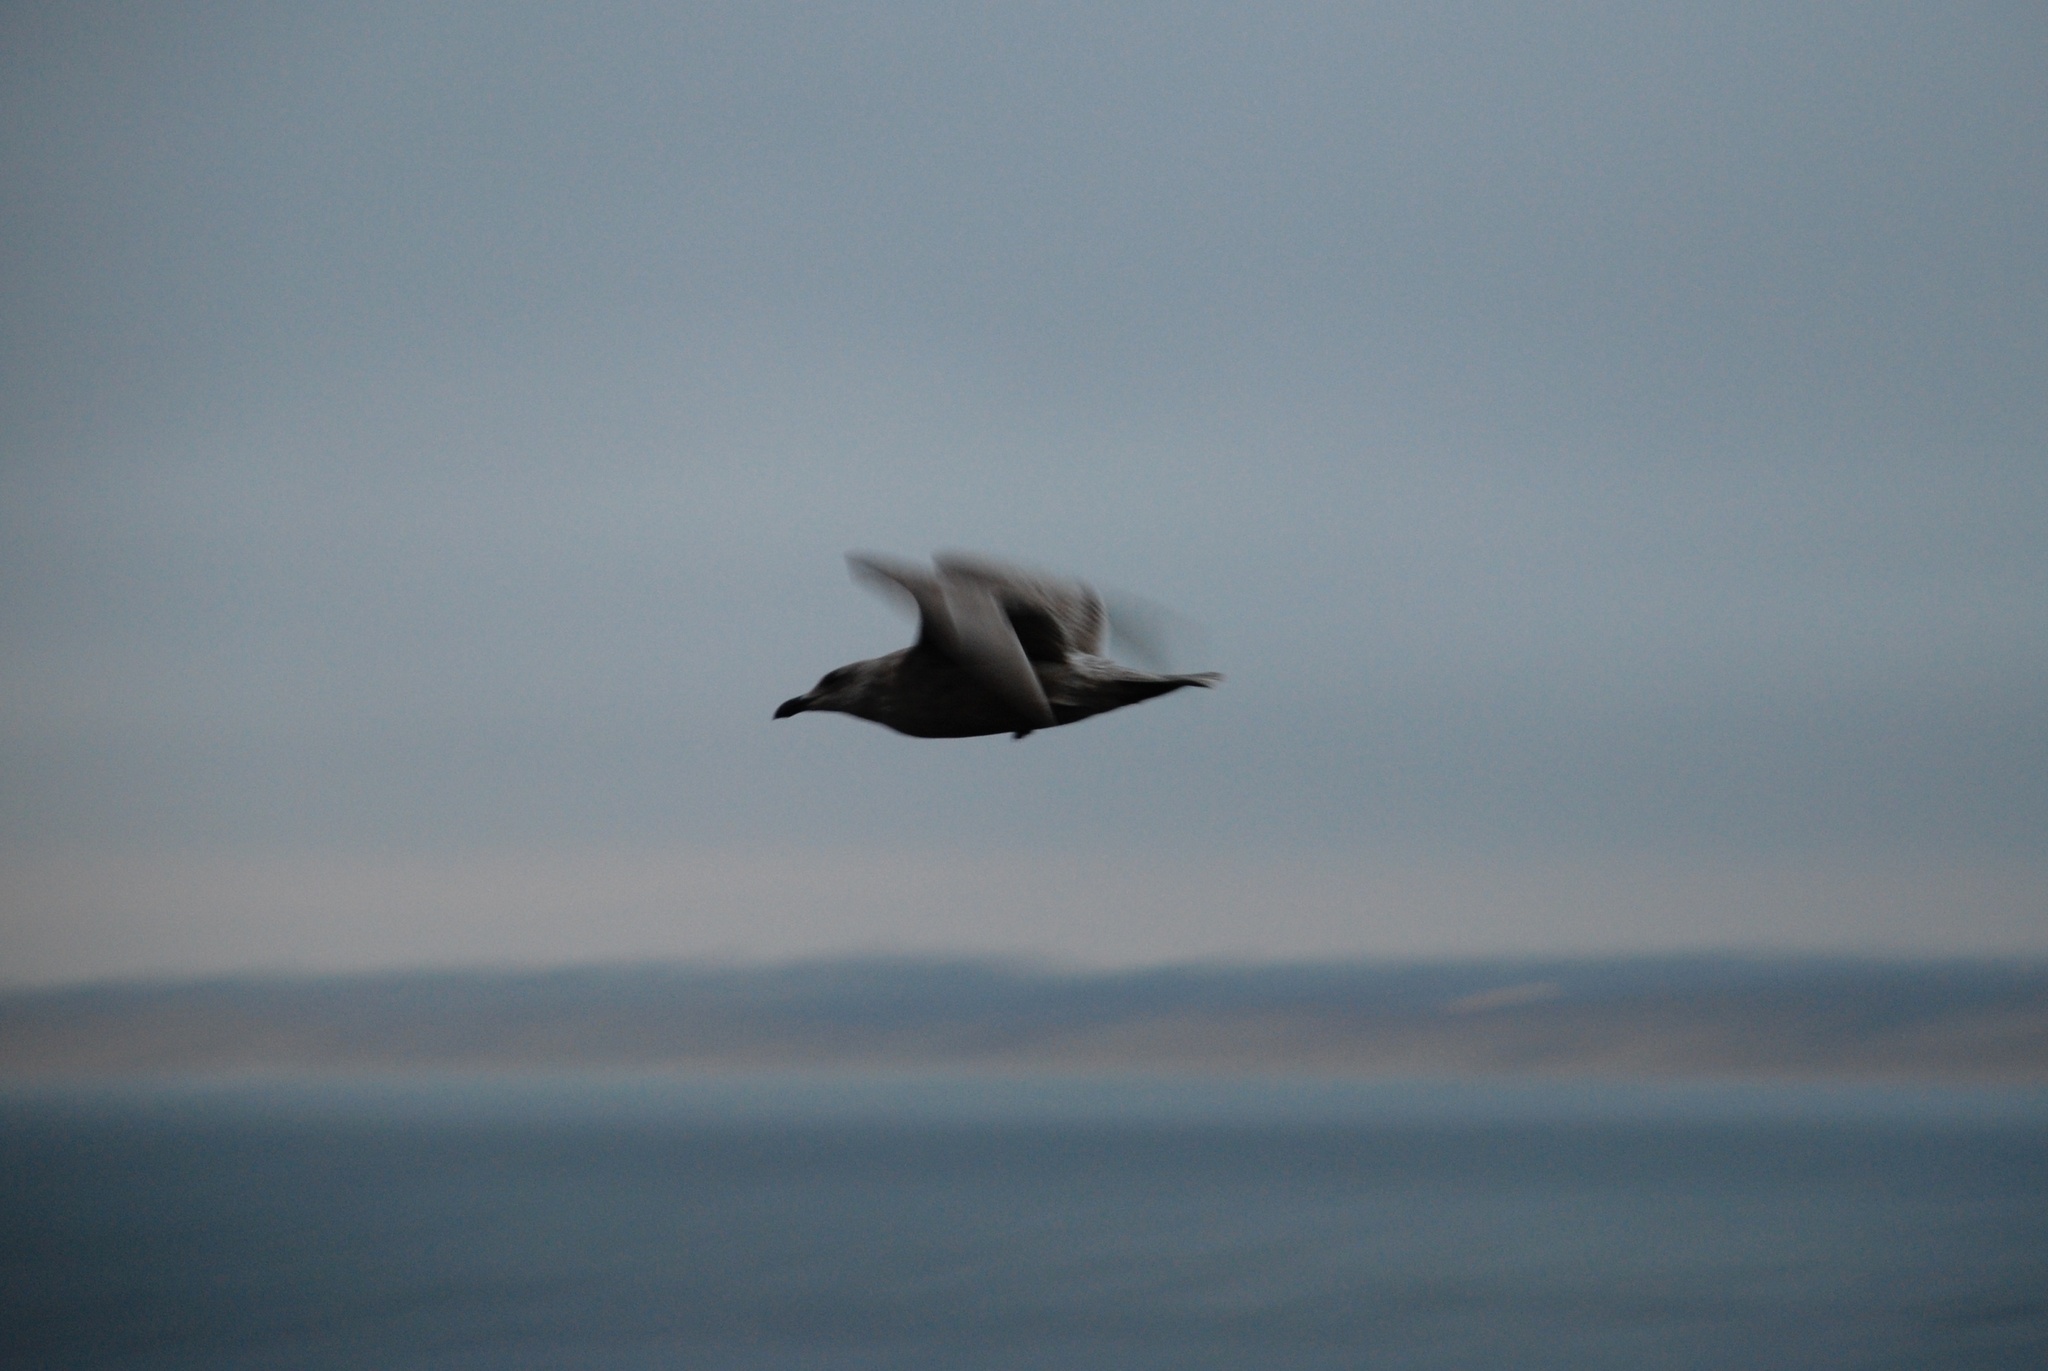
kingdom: Animalia
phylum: Chordata
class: Aves
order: Charadriiformes
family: Laridae
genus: Larus
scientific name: Larus
